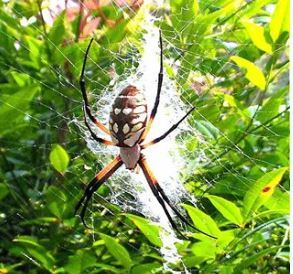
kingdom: Animalia
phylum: Arthropoda
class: Arachnida
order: Araneae
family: Araneidae
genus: Argiope
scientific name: Argiope aurantia
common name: Orb weavers
